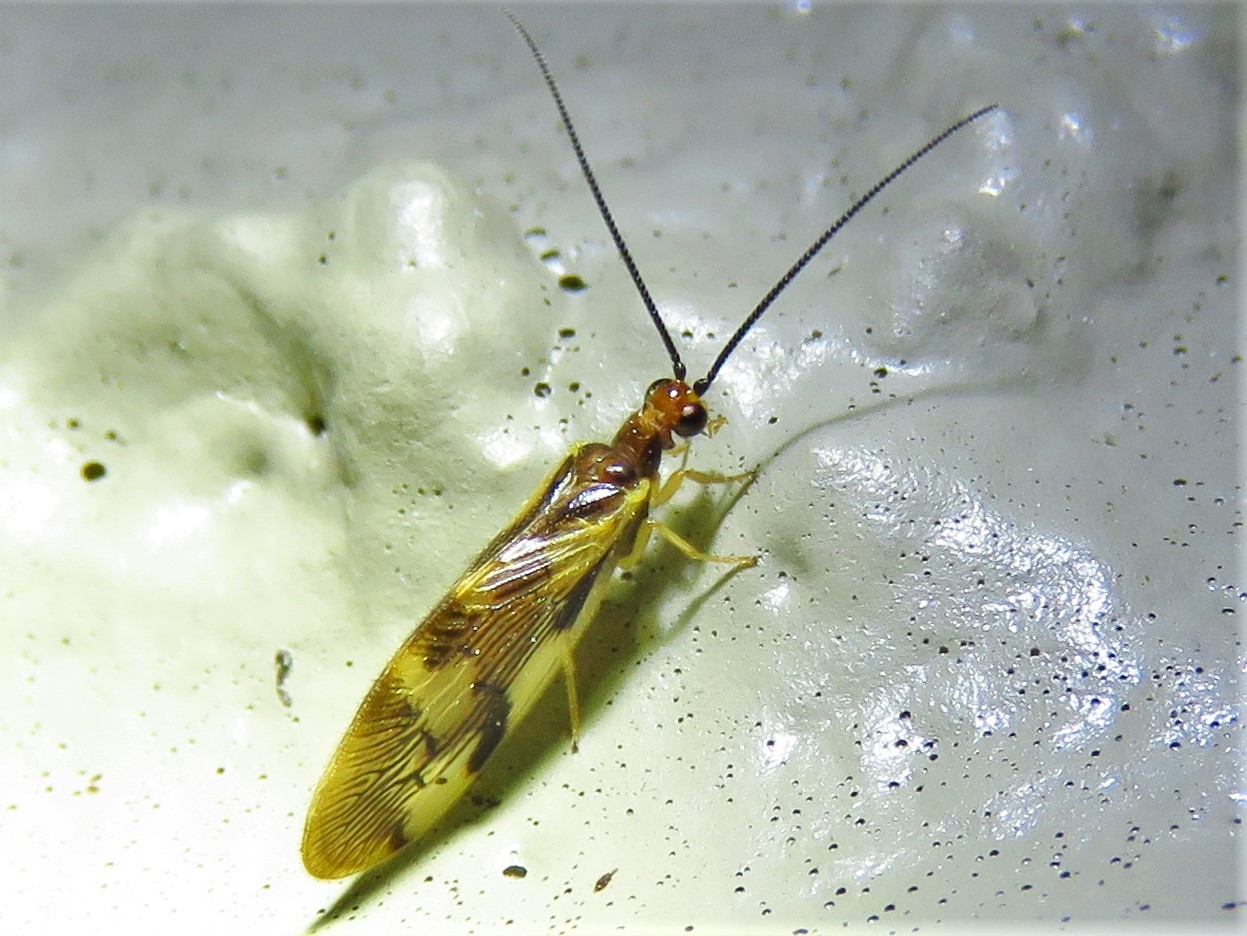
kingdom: Animalia
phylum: Arthropoda
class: Insecta
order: Neuroptera
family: Sisyridae
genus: Climacia
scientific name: Climacia areolaris
